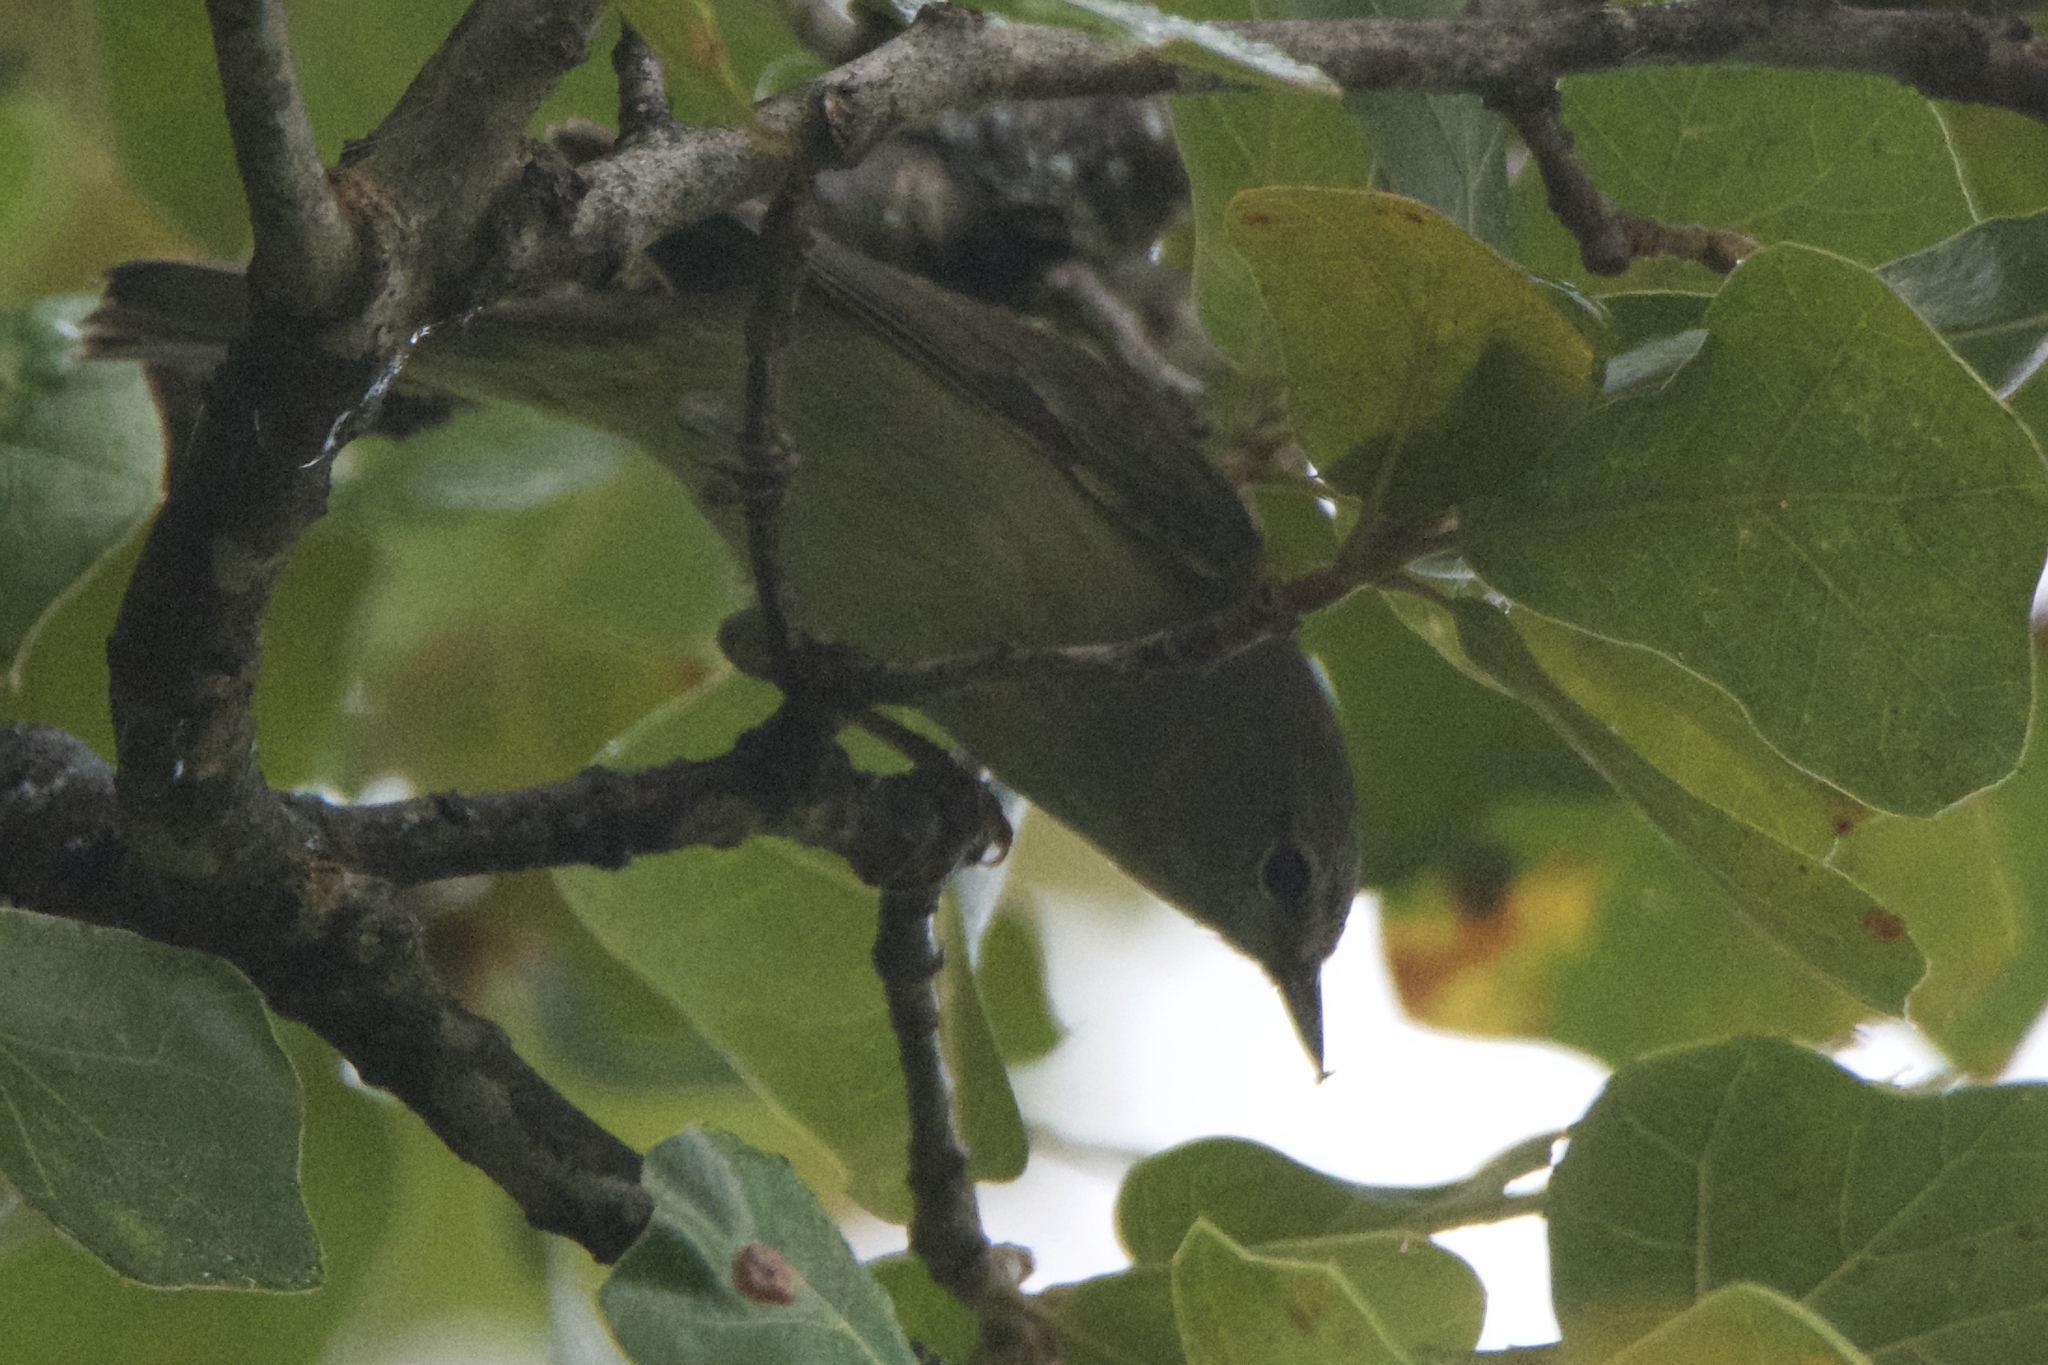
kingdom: Animalia
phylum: Chordata
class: Aves
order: Passeriformes
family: Parulidae
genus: Leiothlypis
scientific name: Leiothlypis celata
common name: Orange-crowned warbler
